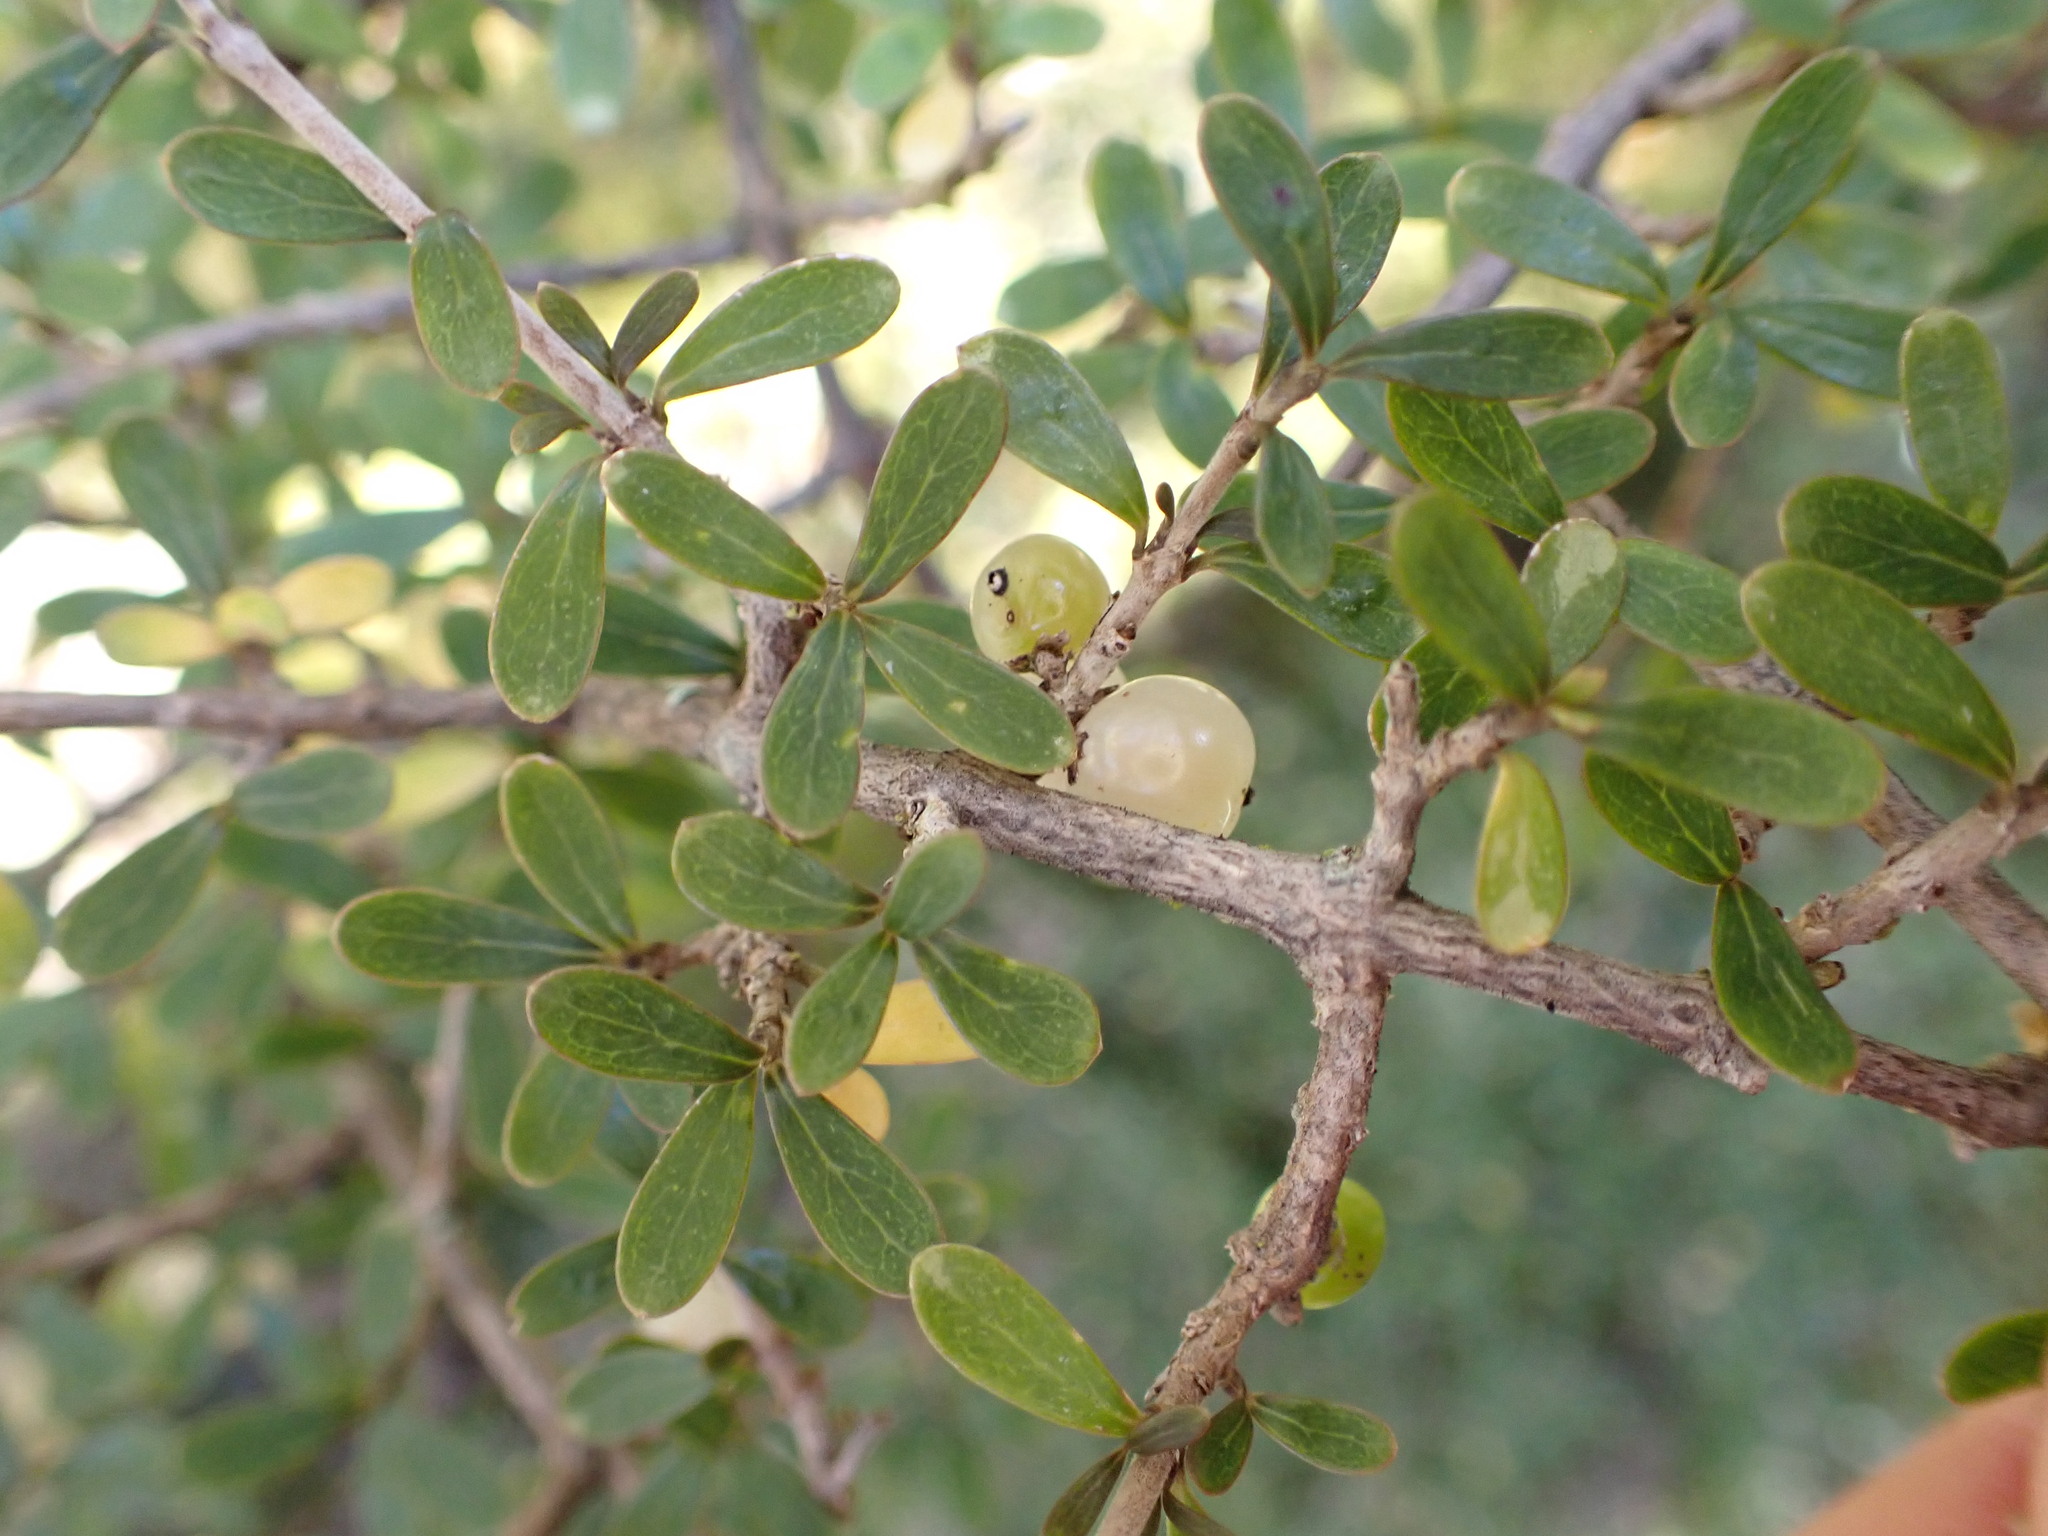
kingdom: Plantae
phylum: Tracheophyta
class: Magnoliopsida
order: Gentianales
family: Rubiaceae
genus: Coprosma
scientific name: Coprosma dumosa
